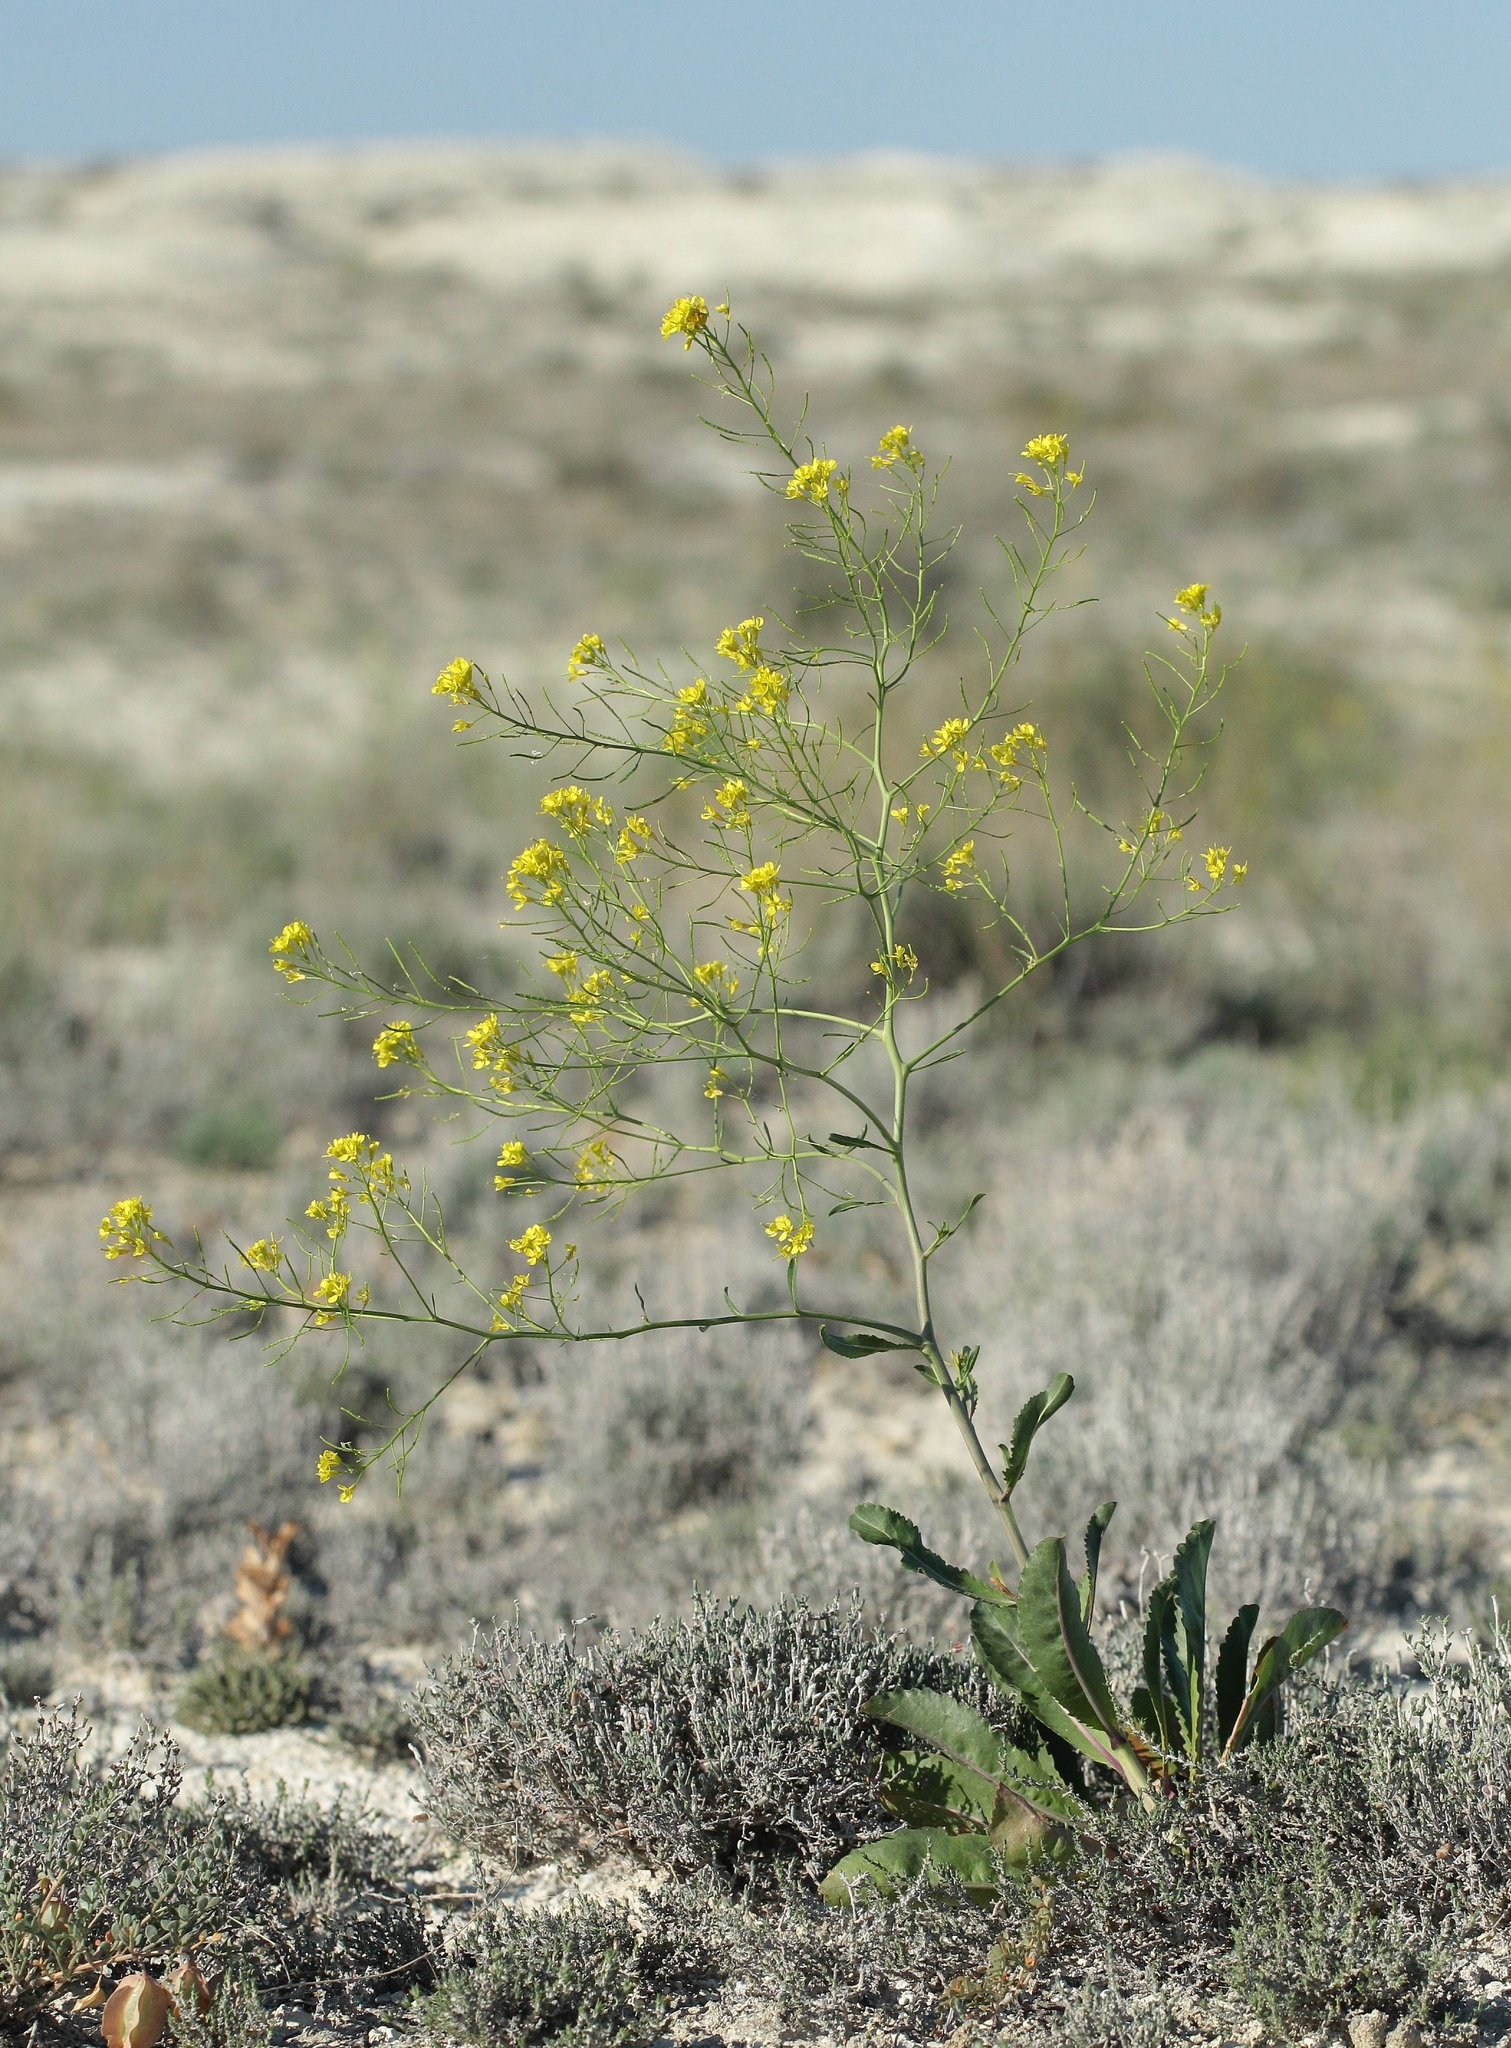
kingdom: Plantae
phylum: Tracheophyta
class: Magnoliopsida
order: Brassicales
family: Brassicaceae
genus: Brassica
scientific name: Brassica elongata
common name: Long-stalked rape
